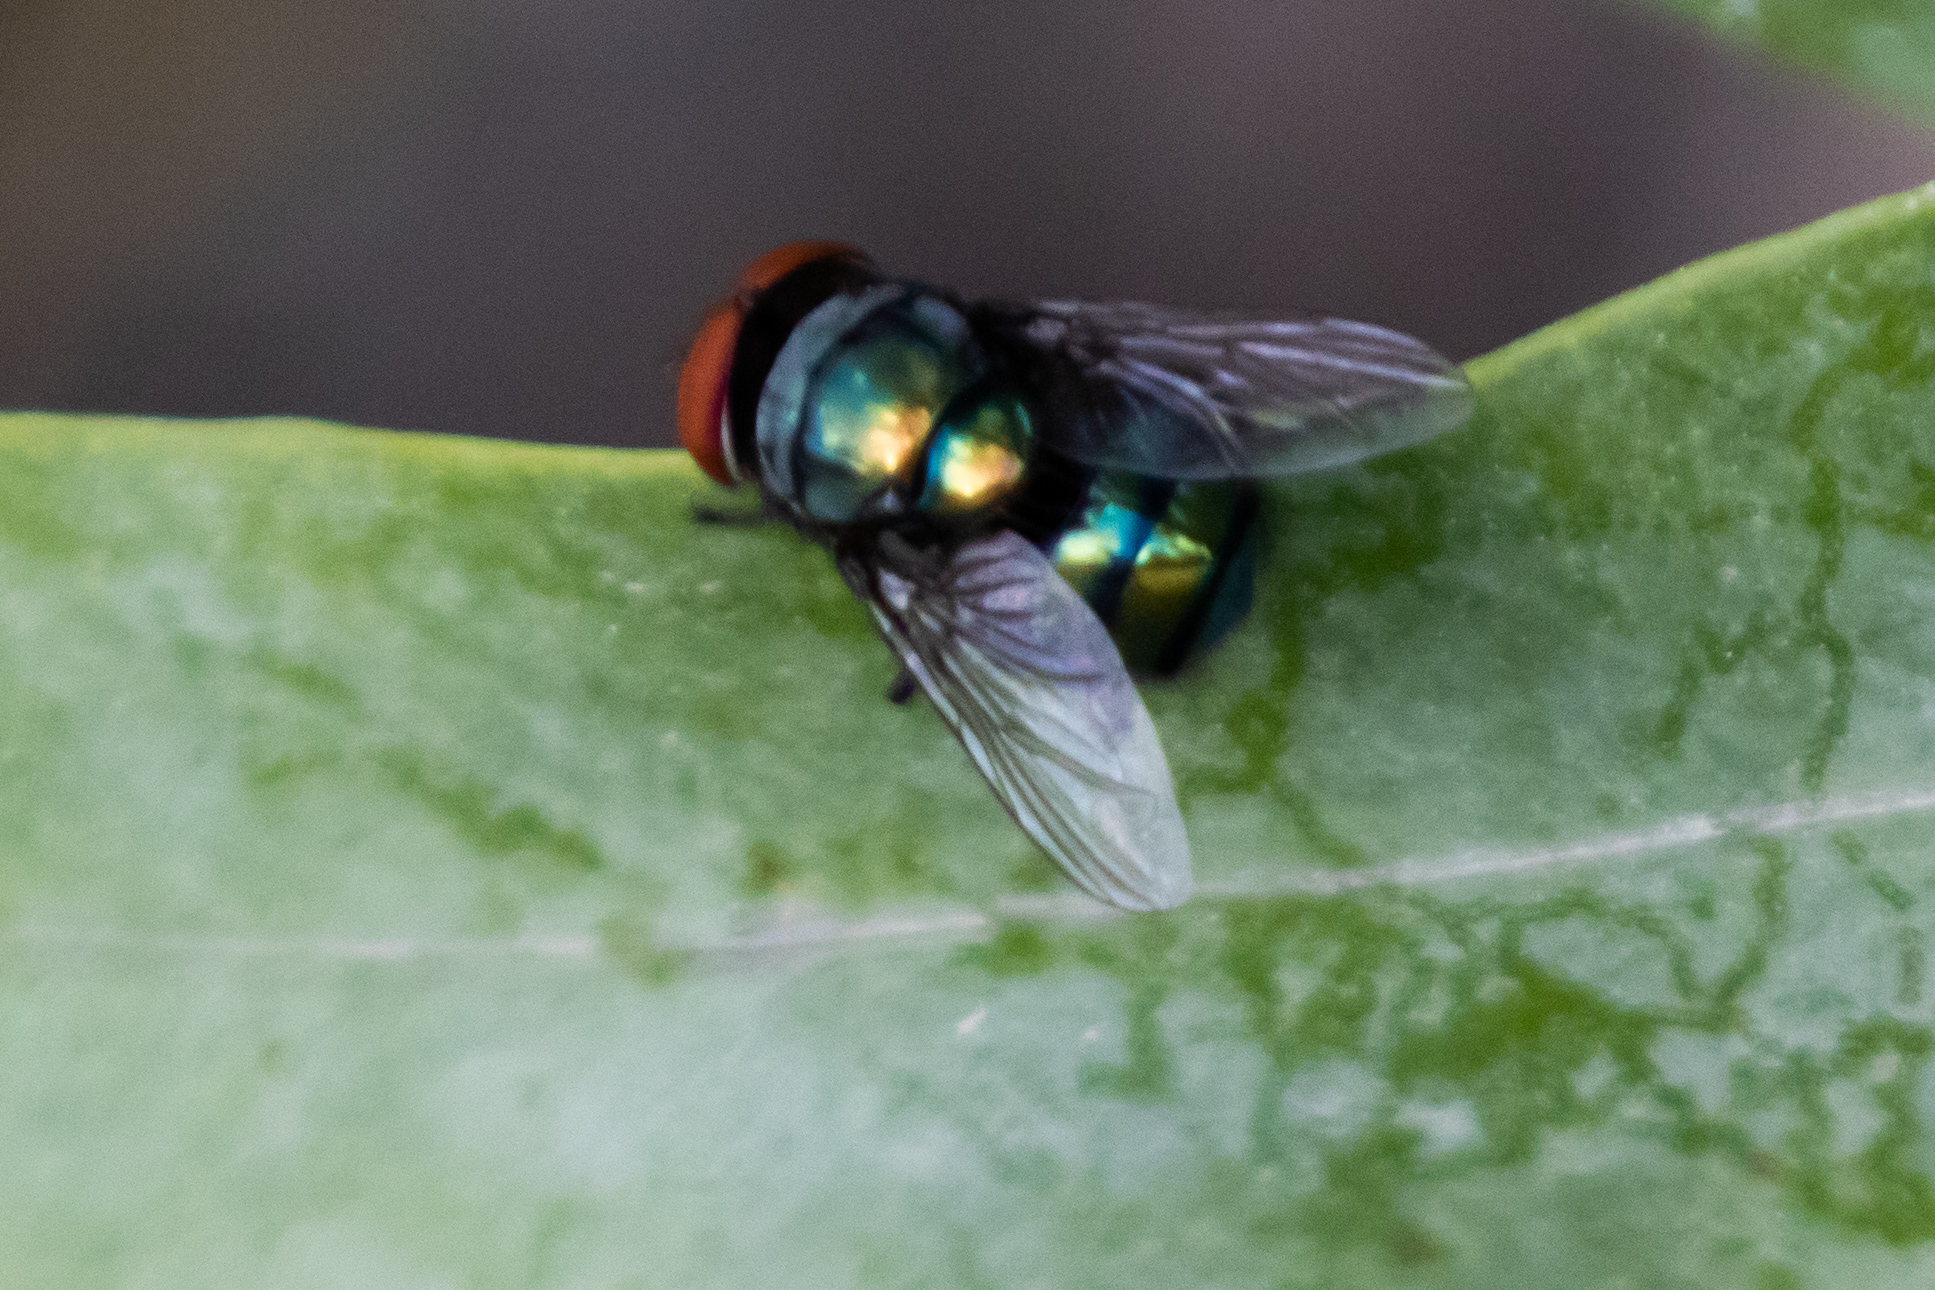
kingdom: Animalia
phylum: Arthropoda
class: Insecta
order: Diptera
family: Calliphoridae
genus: Chrysomya
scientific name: Chrysomya megacephala
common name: Blow fly
